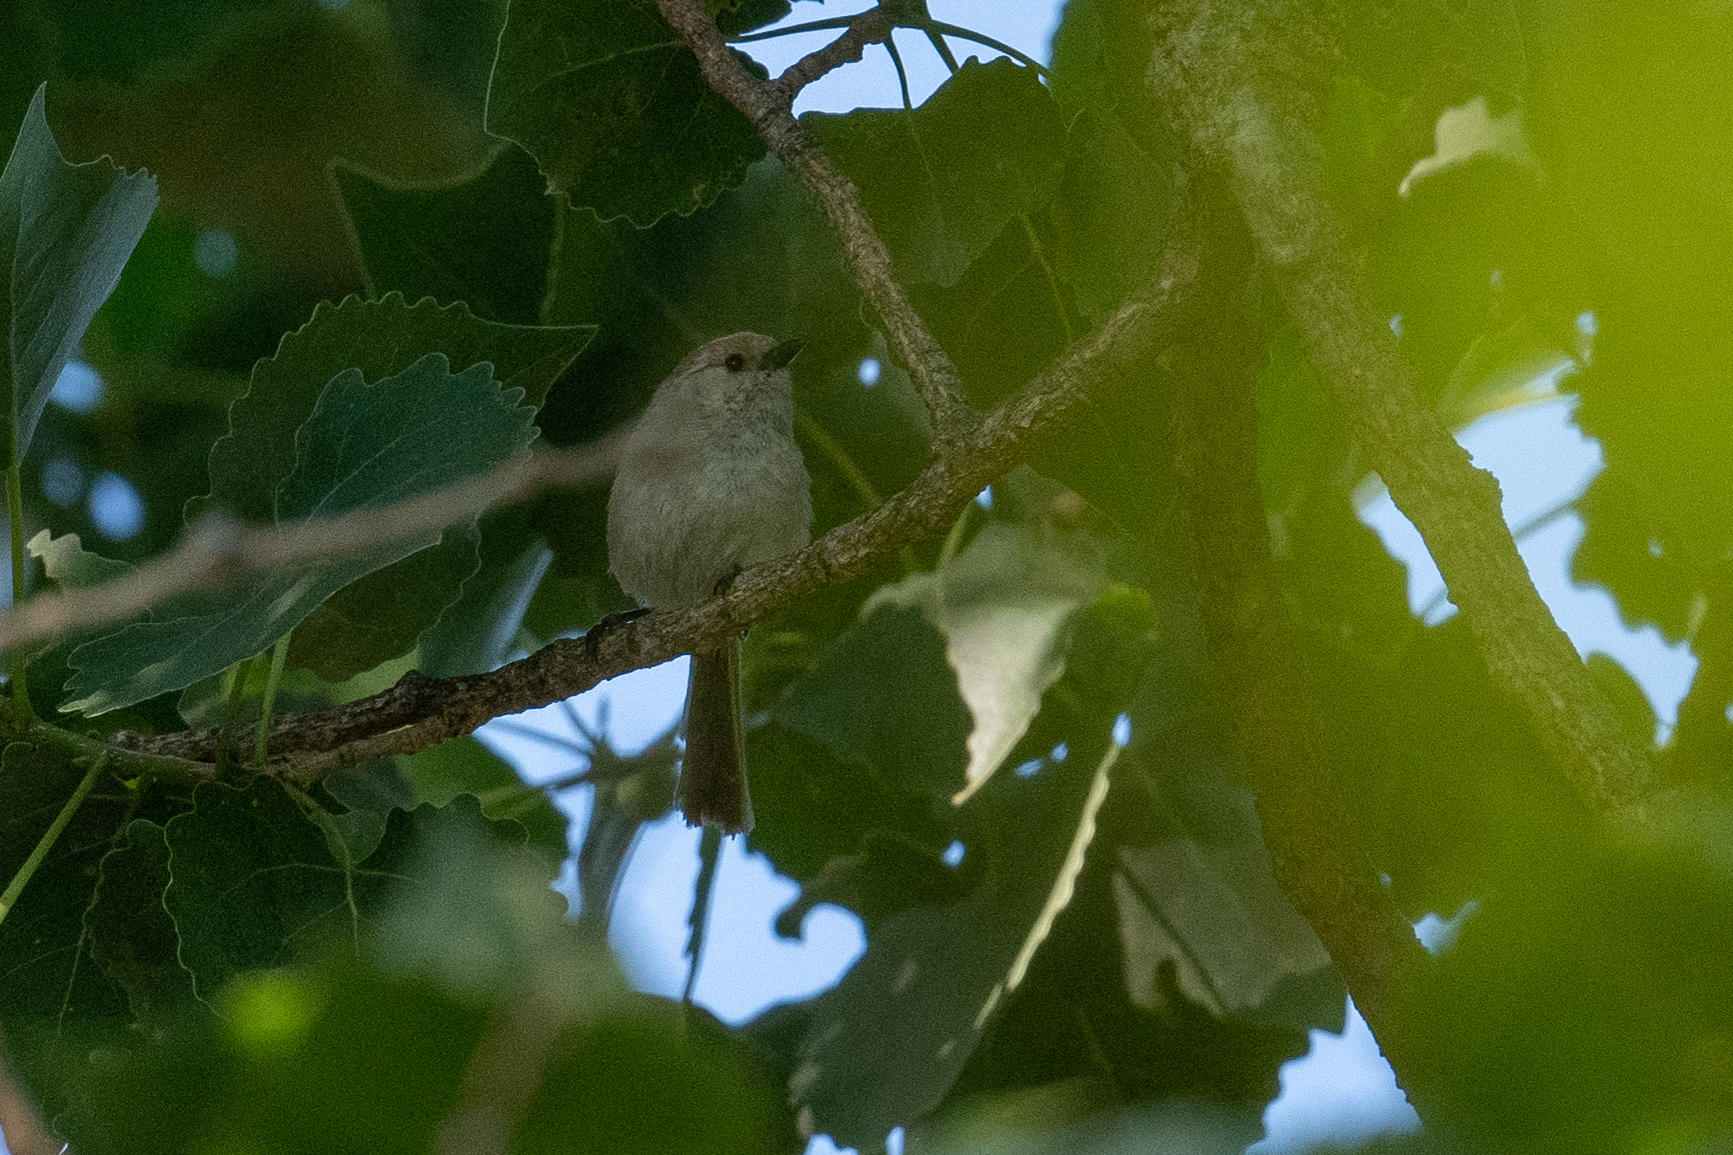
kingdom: Animalia
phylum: Chordata
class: Aves
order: Passeriformes
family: Aegithalidae
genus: Psaltriparus
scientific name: Psaltriparus minimus
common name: American bushtit
